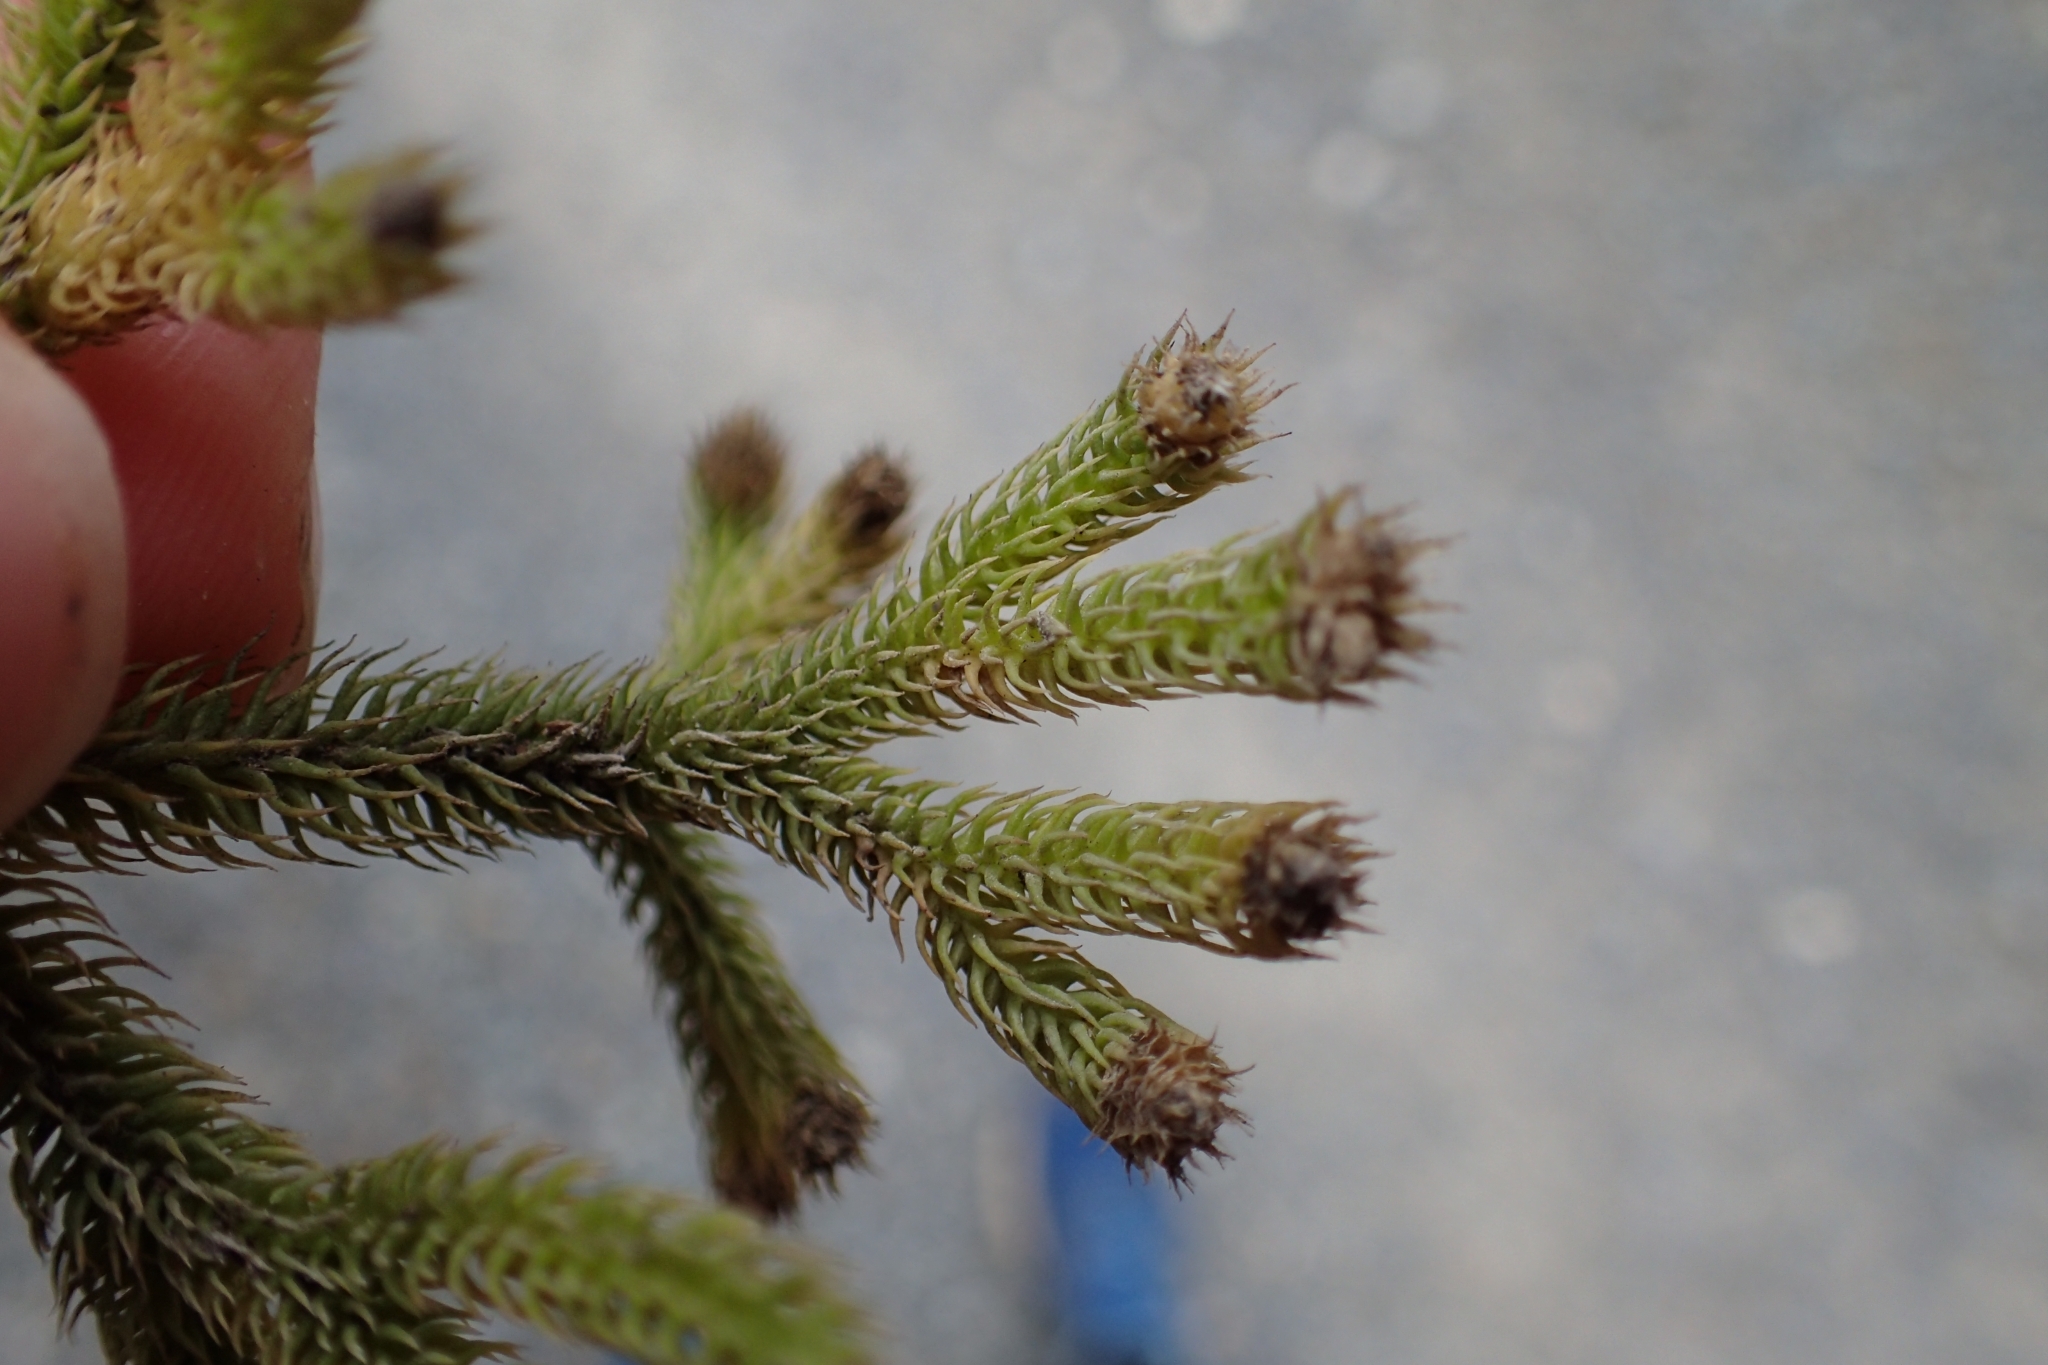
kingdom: Plantae
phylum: Tracheophyta
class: Lycopodiopsida
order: Lycopodiales
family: Lycopodiaceae
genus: Palhinhaea
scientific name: Palhinhaea cernua
